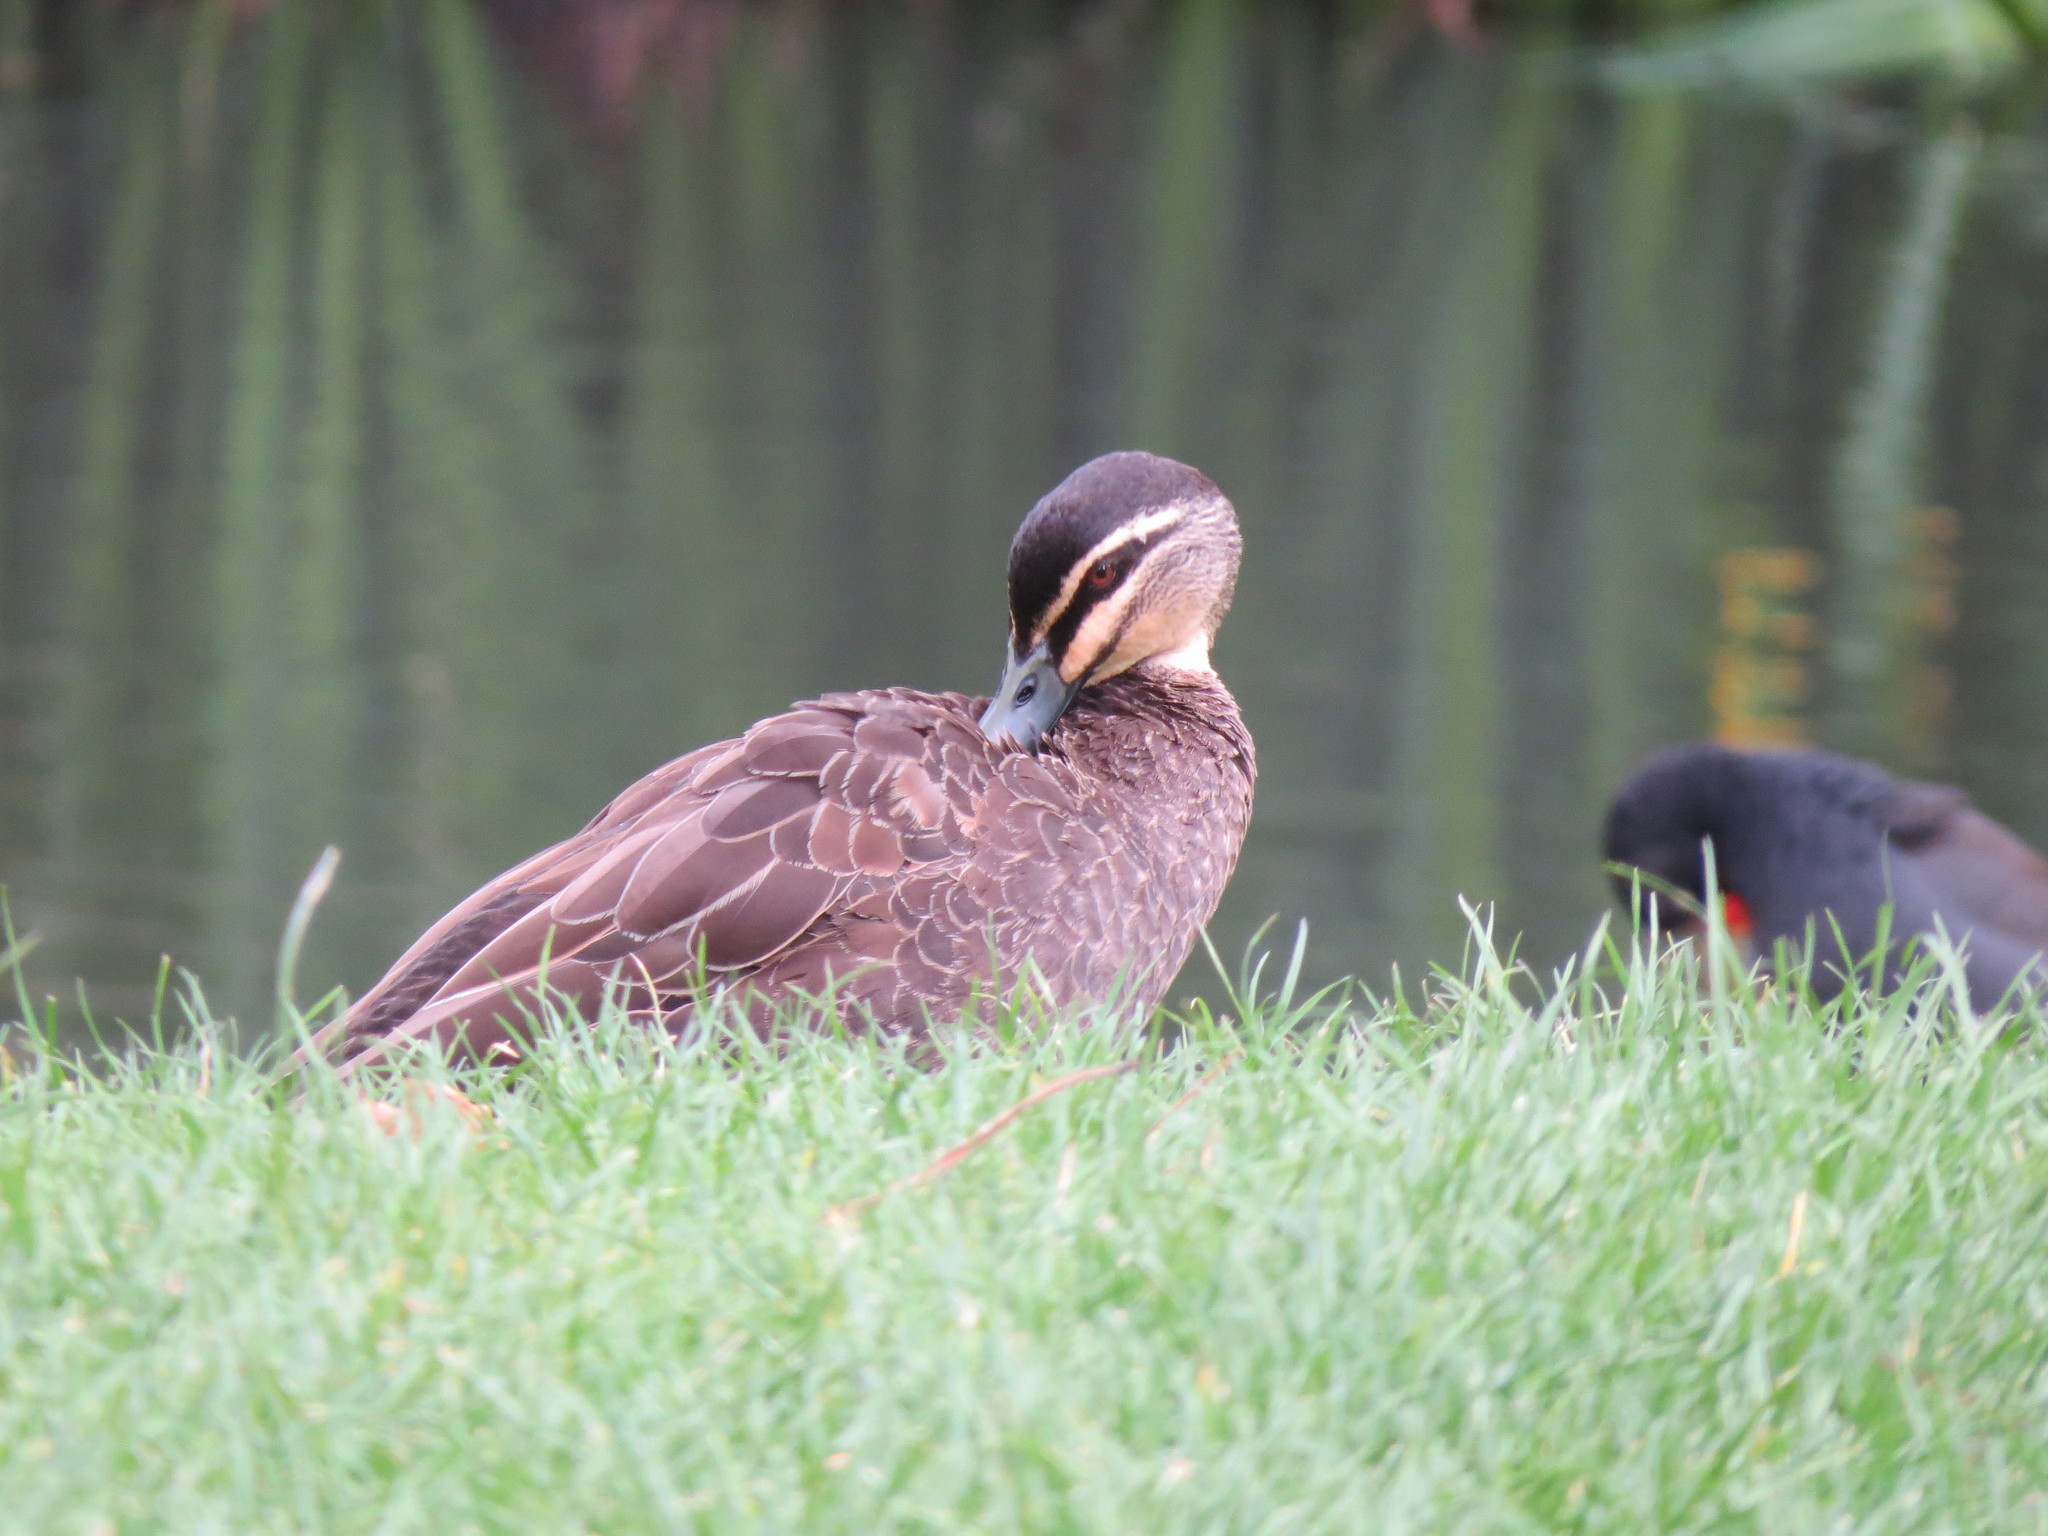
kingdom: Animalia
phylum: Chordata
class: Aves
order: Anseriformes
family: Anatidae
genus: Anas
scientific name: Anas superciliosa
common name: Pacific black duck
